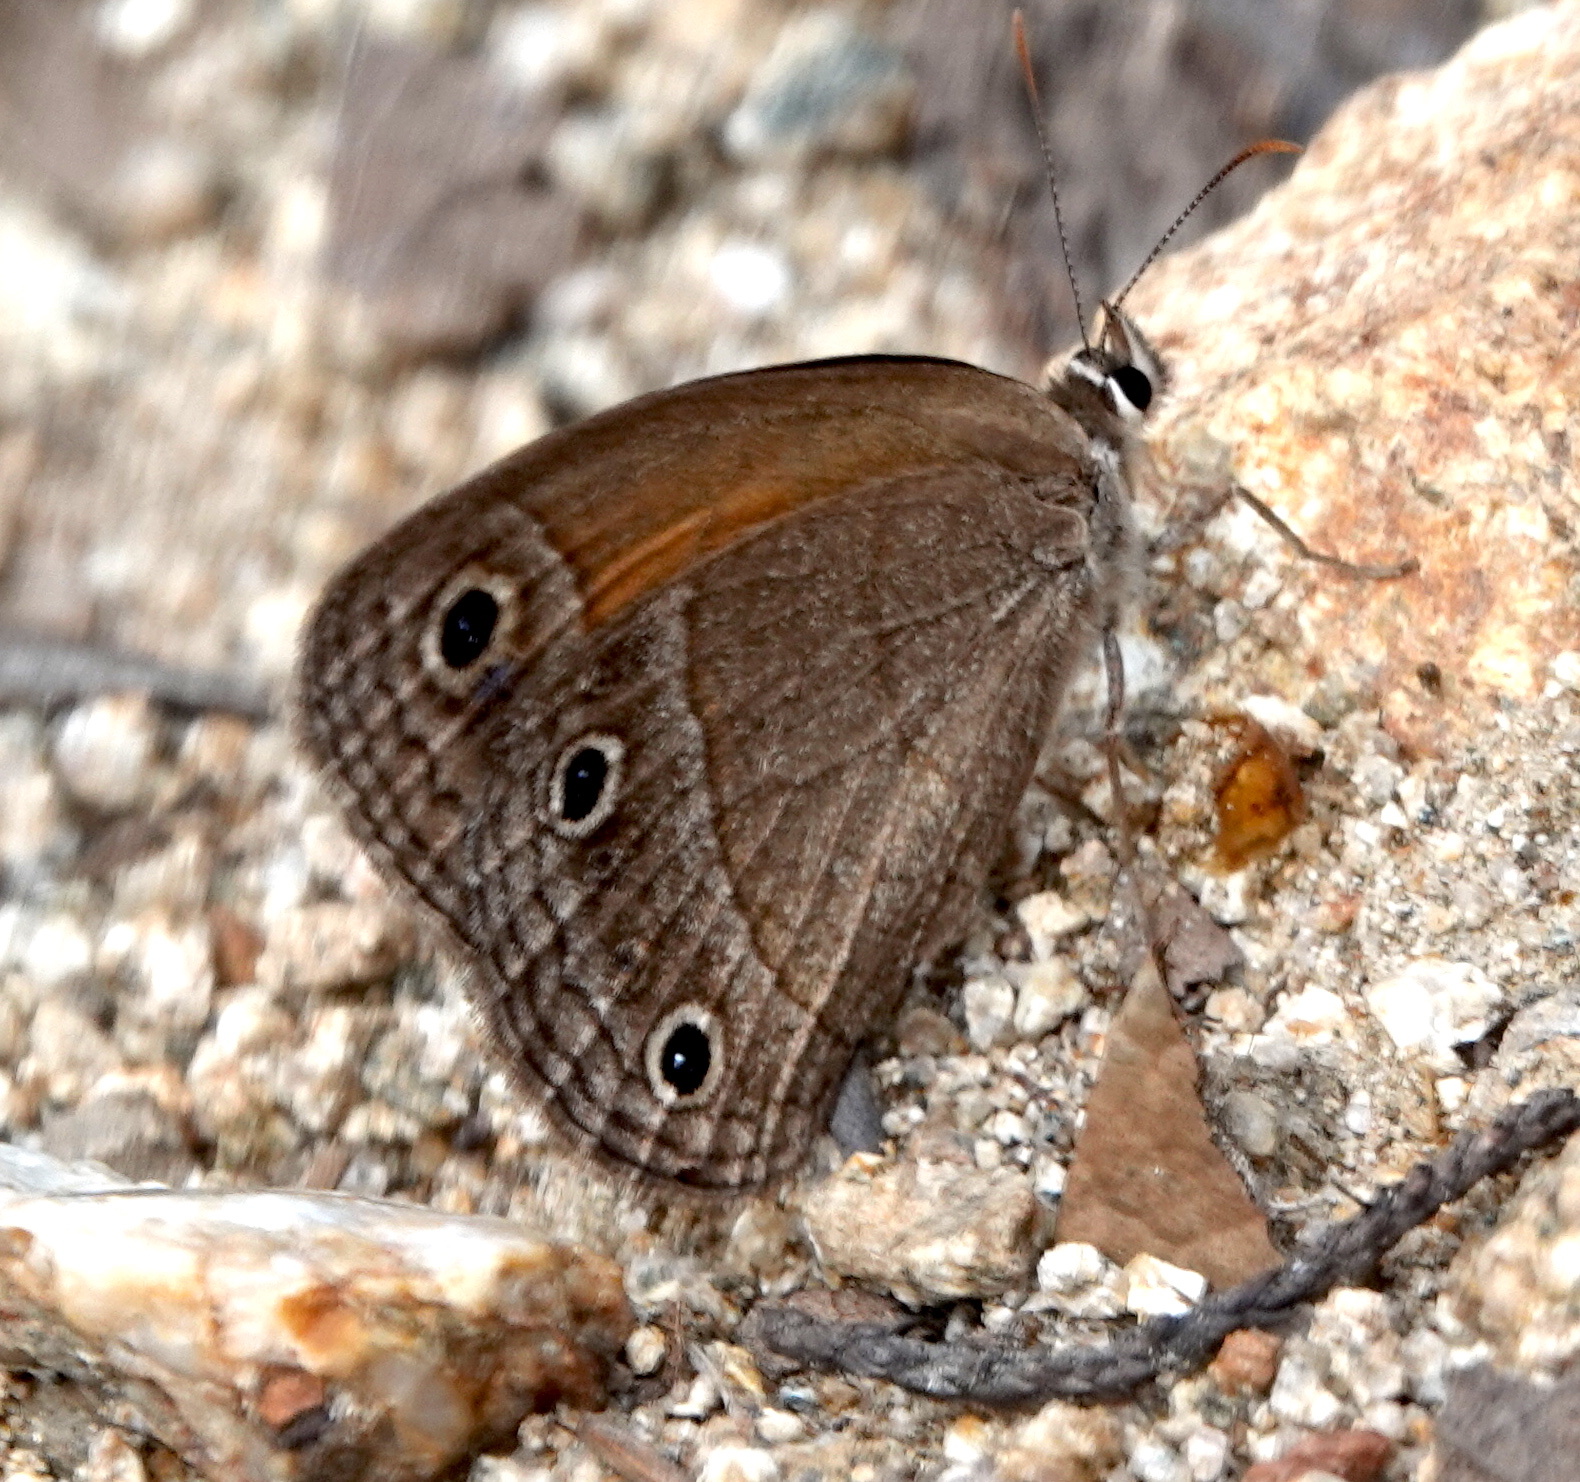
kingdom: Animalia
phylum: Arthropoda
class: Insecta
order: Lepidoptera
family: Nymphalidae
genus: Euptychia
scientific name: Euptychia
